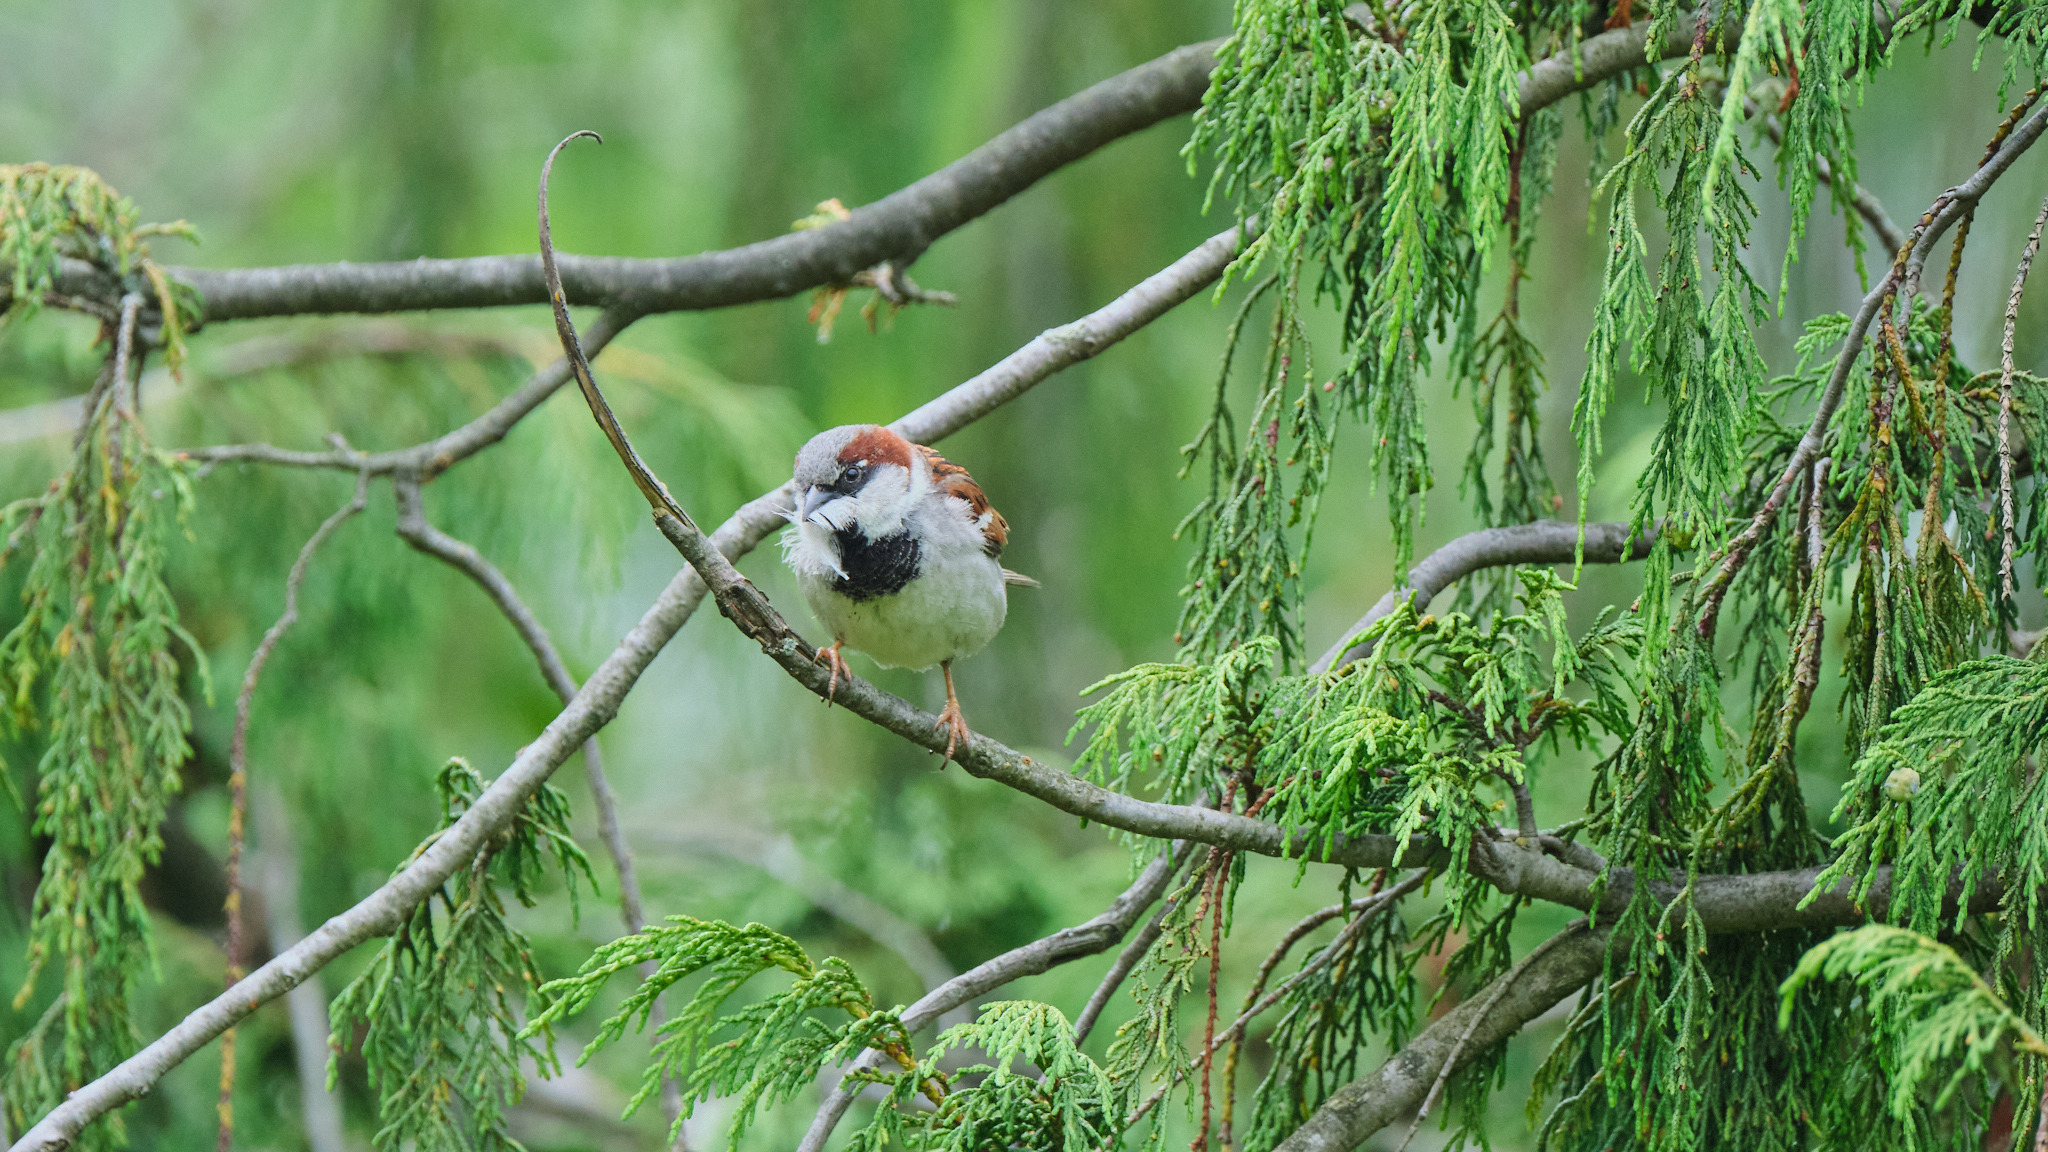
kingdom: Animalia
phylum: Chordata
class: Aves
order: Passeriformes
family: Passeridae
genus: Passer
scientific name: Passer domesticus
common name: House sparrow
